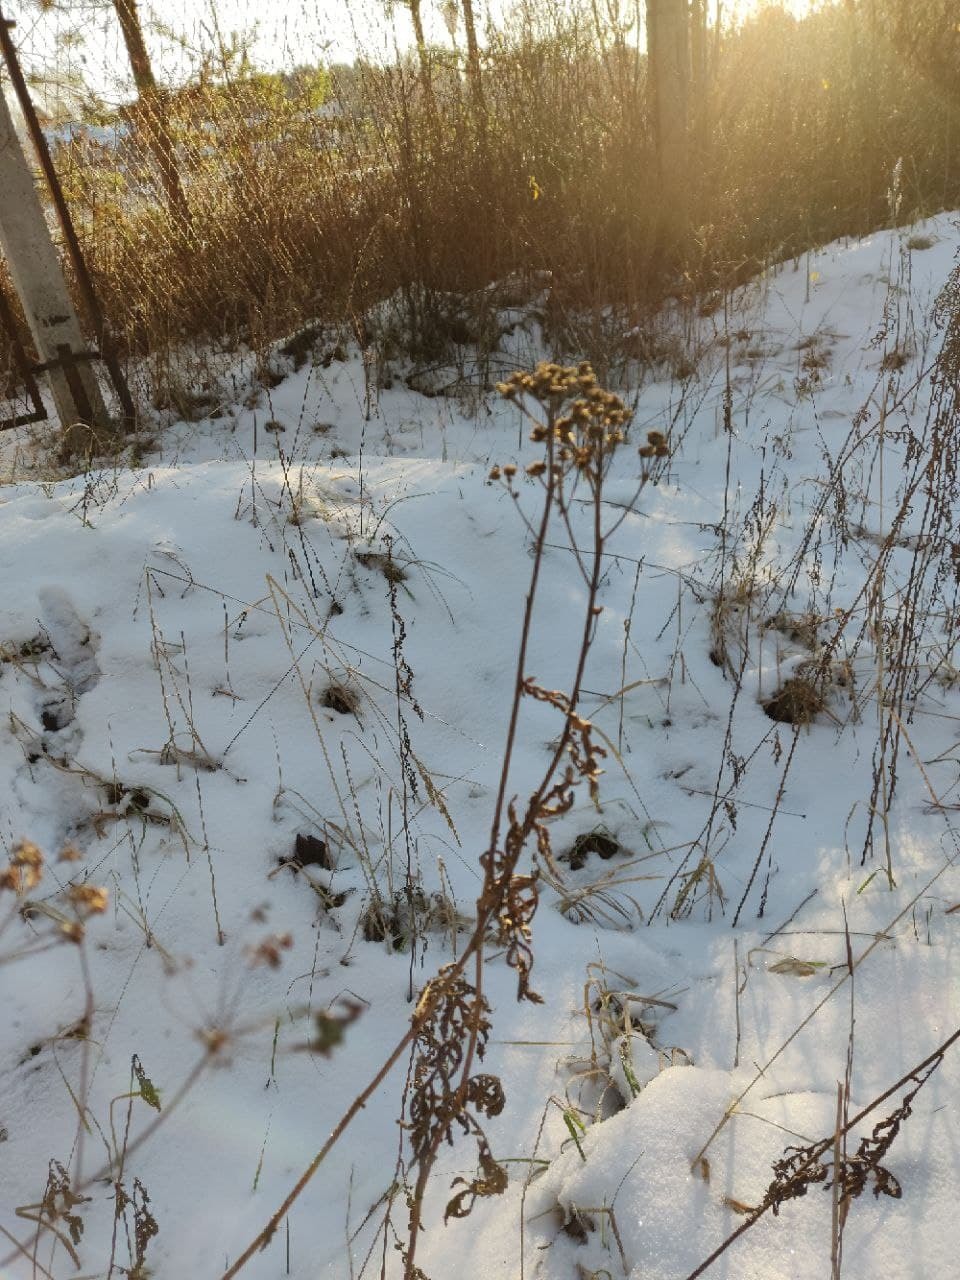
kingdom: Plantae
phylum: Tracheophyta
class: Magnoliopsida
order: Asterales
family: Asteraceae
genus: Tanacetum
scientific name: Tanacetum vulgare
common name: Common tansy
